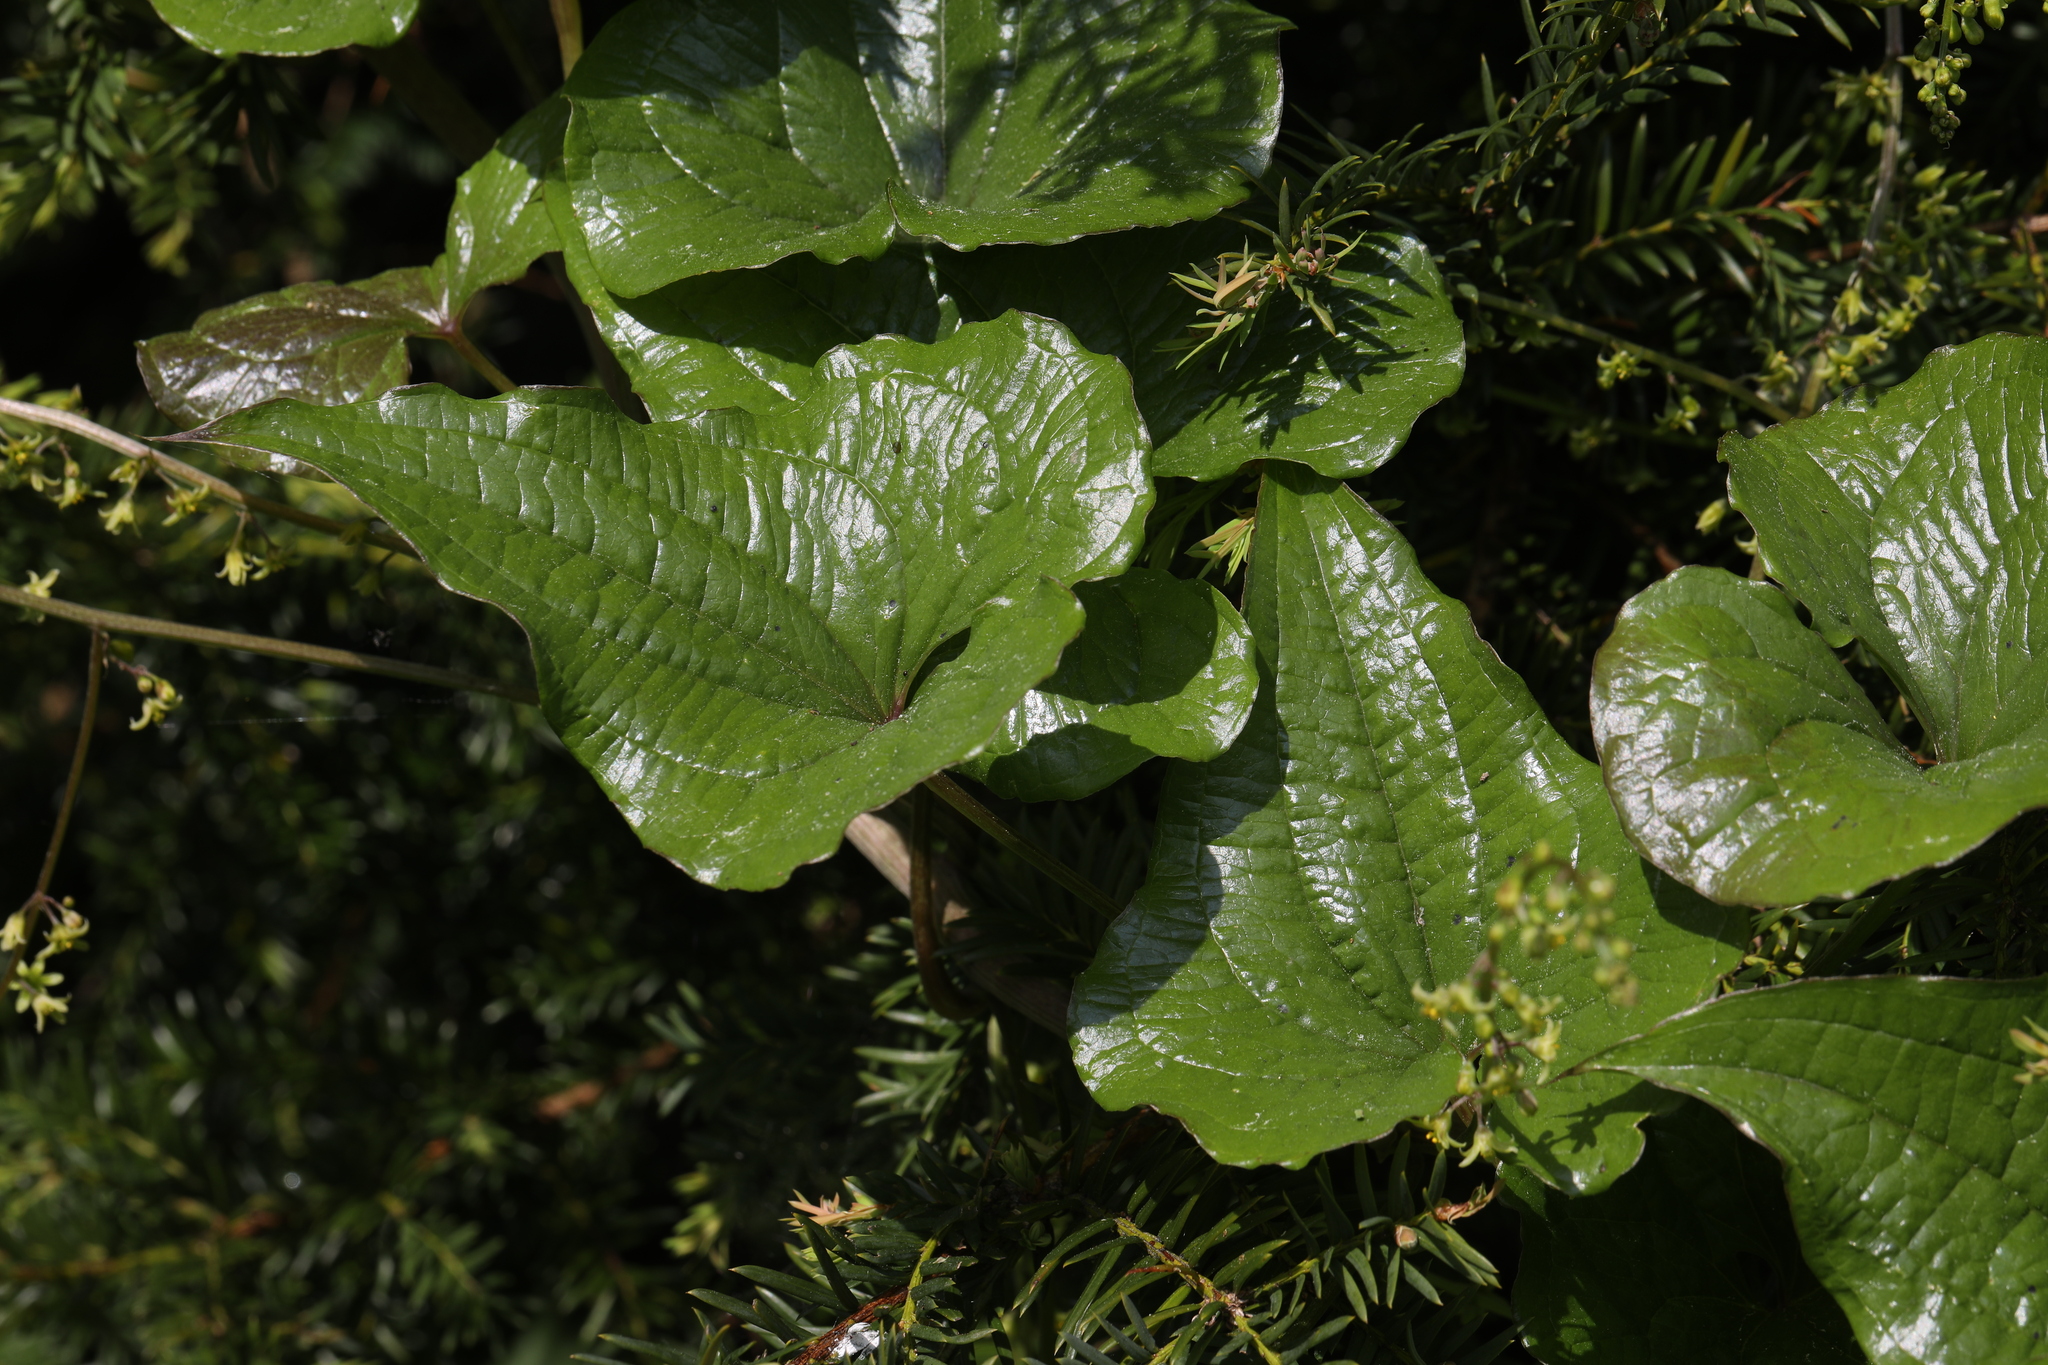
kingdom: Plantae
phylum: Tracheophyta
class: Liliopsida
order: Dioscoreales
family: Dioscoreaceae
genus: Dioscorea
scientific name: Dioscorea communis
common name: Black-bindweed
